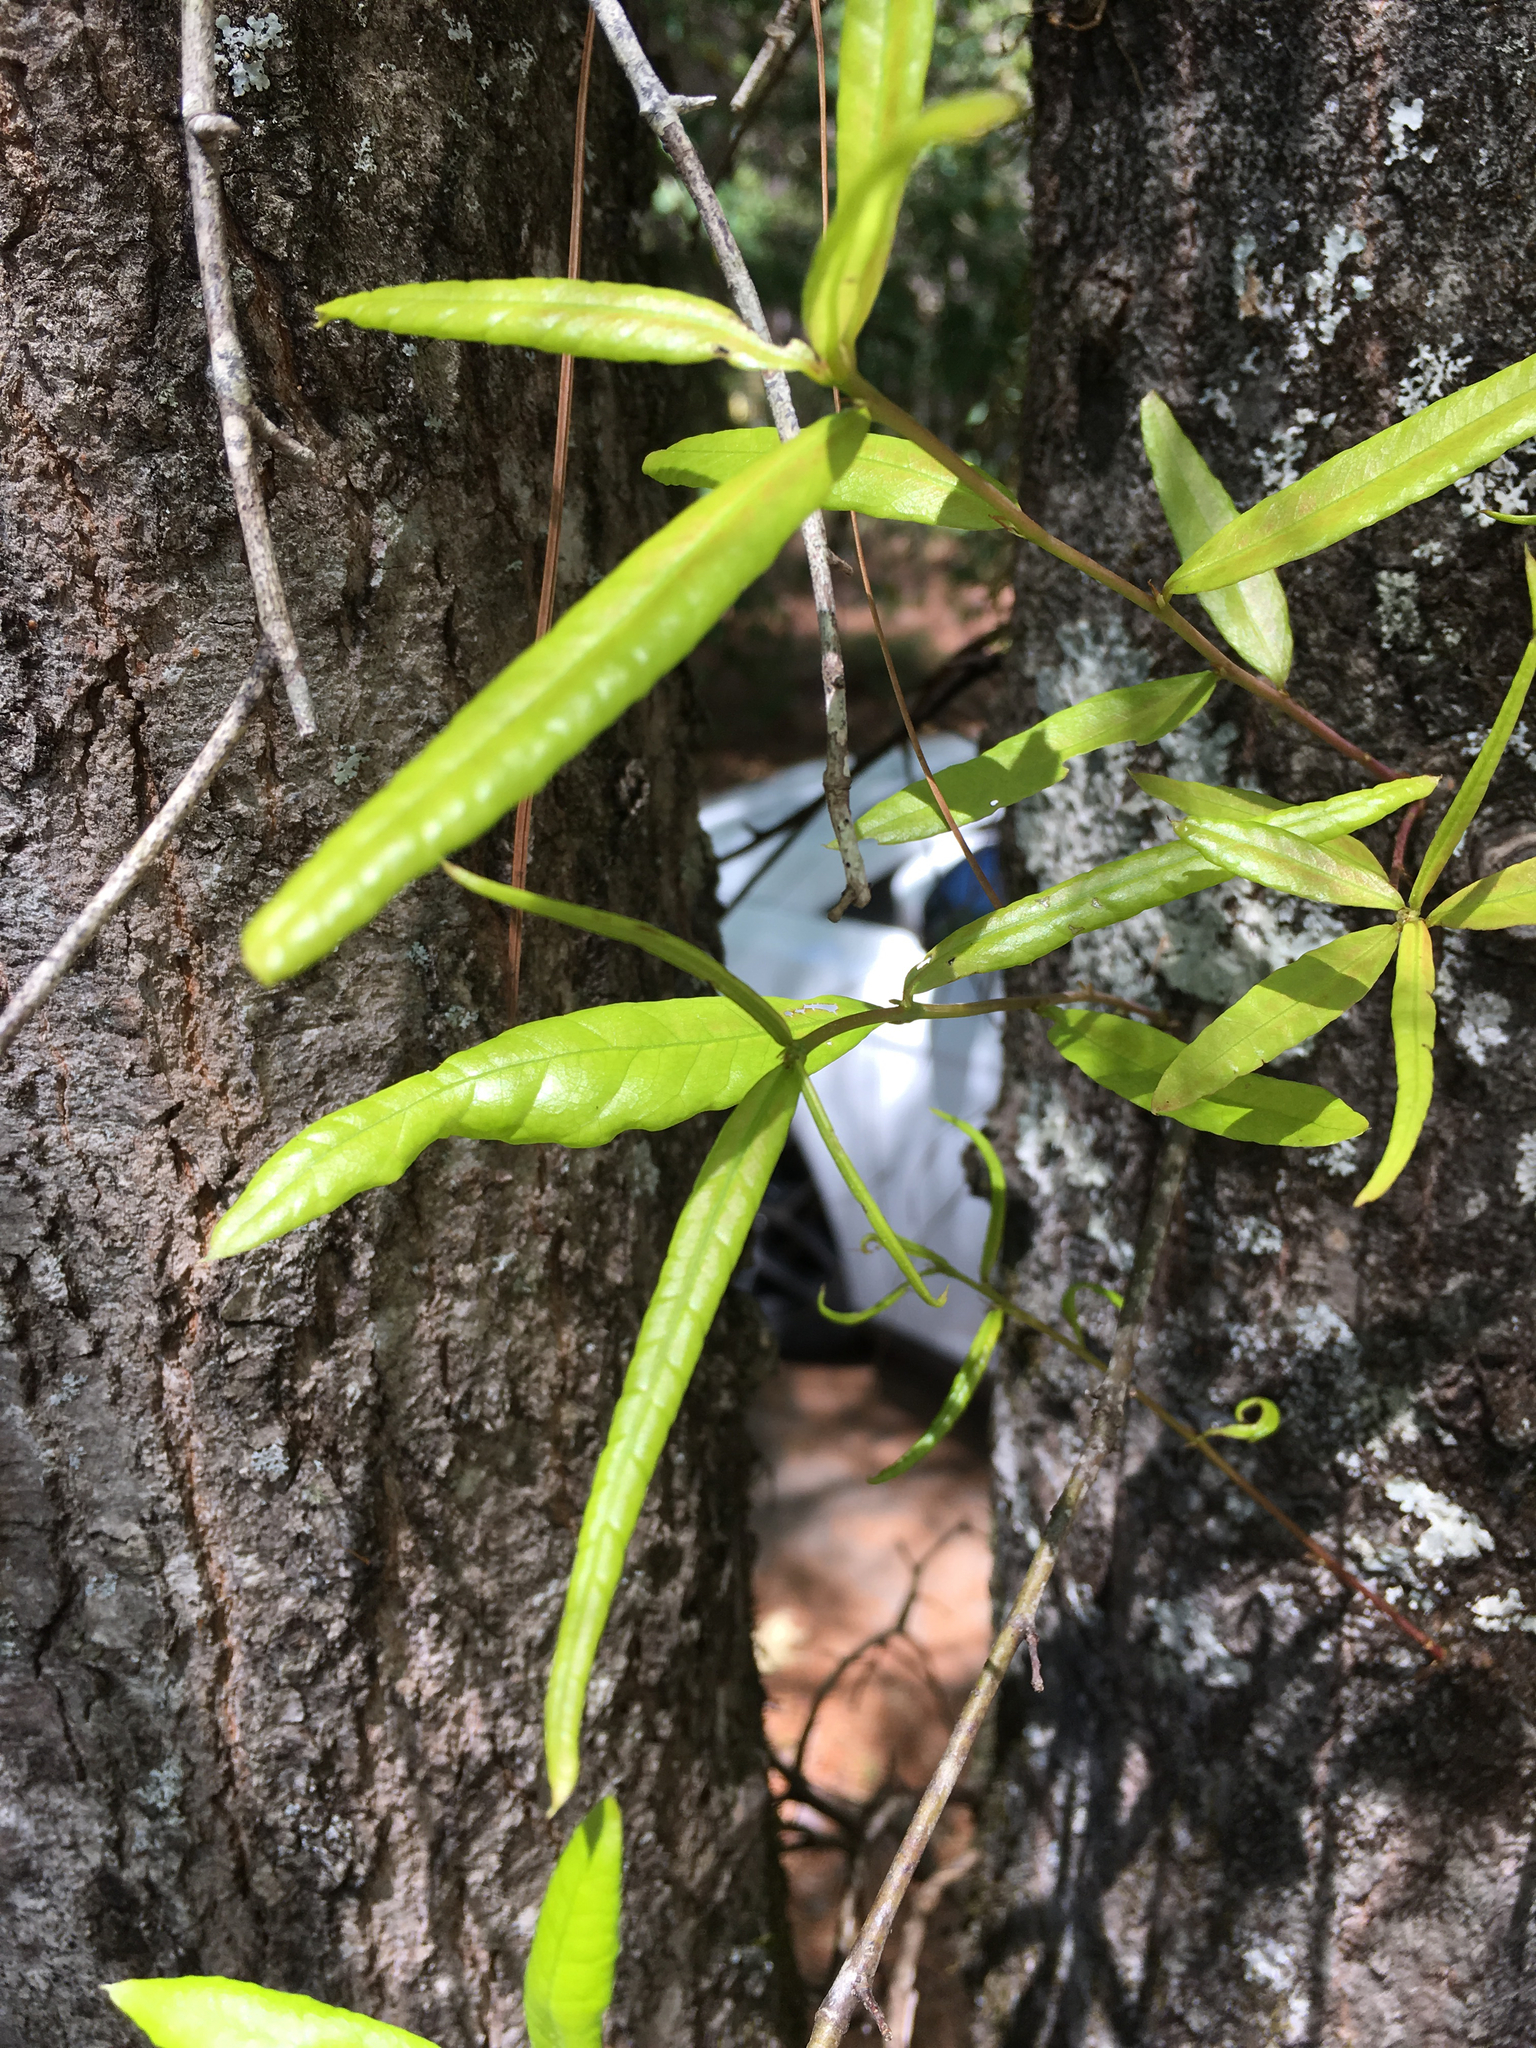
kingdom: Plantae
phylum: Tracheophyta
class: Magnoliopsida
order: Fagales
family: Fagaceae
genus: Quercus
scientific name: Quercus phellos
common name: Willow oak
